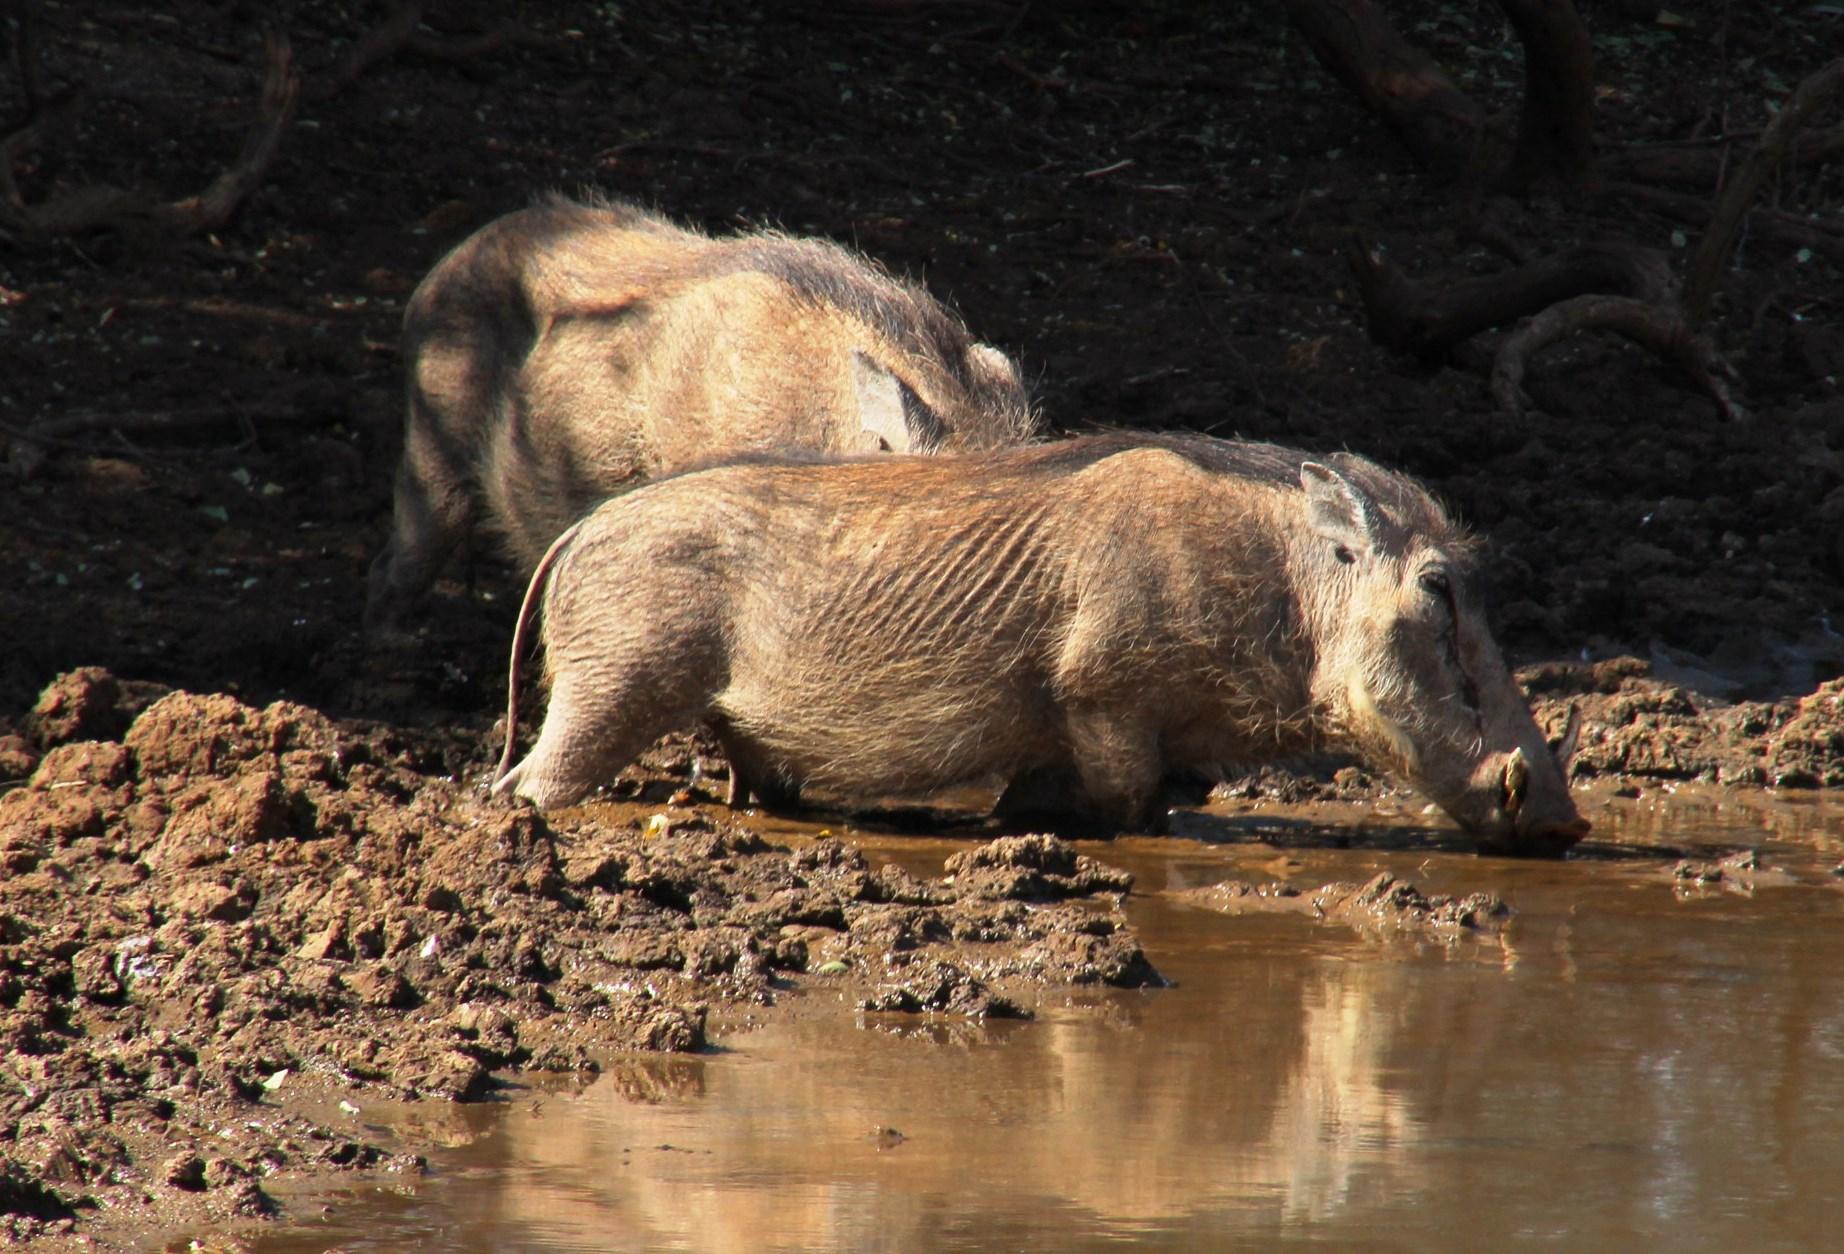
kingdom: Animalia
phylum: Chordata
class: Mammalia
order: Artiodactyla
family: Suidae
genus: Phacochoerus
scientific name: Phacochoerus africanus
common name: Common warthog
